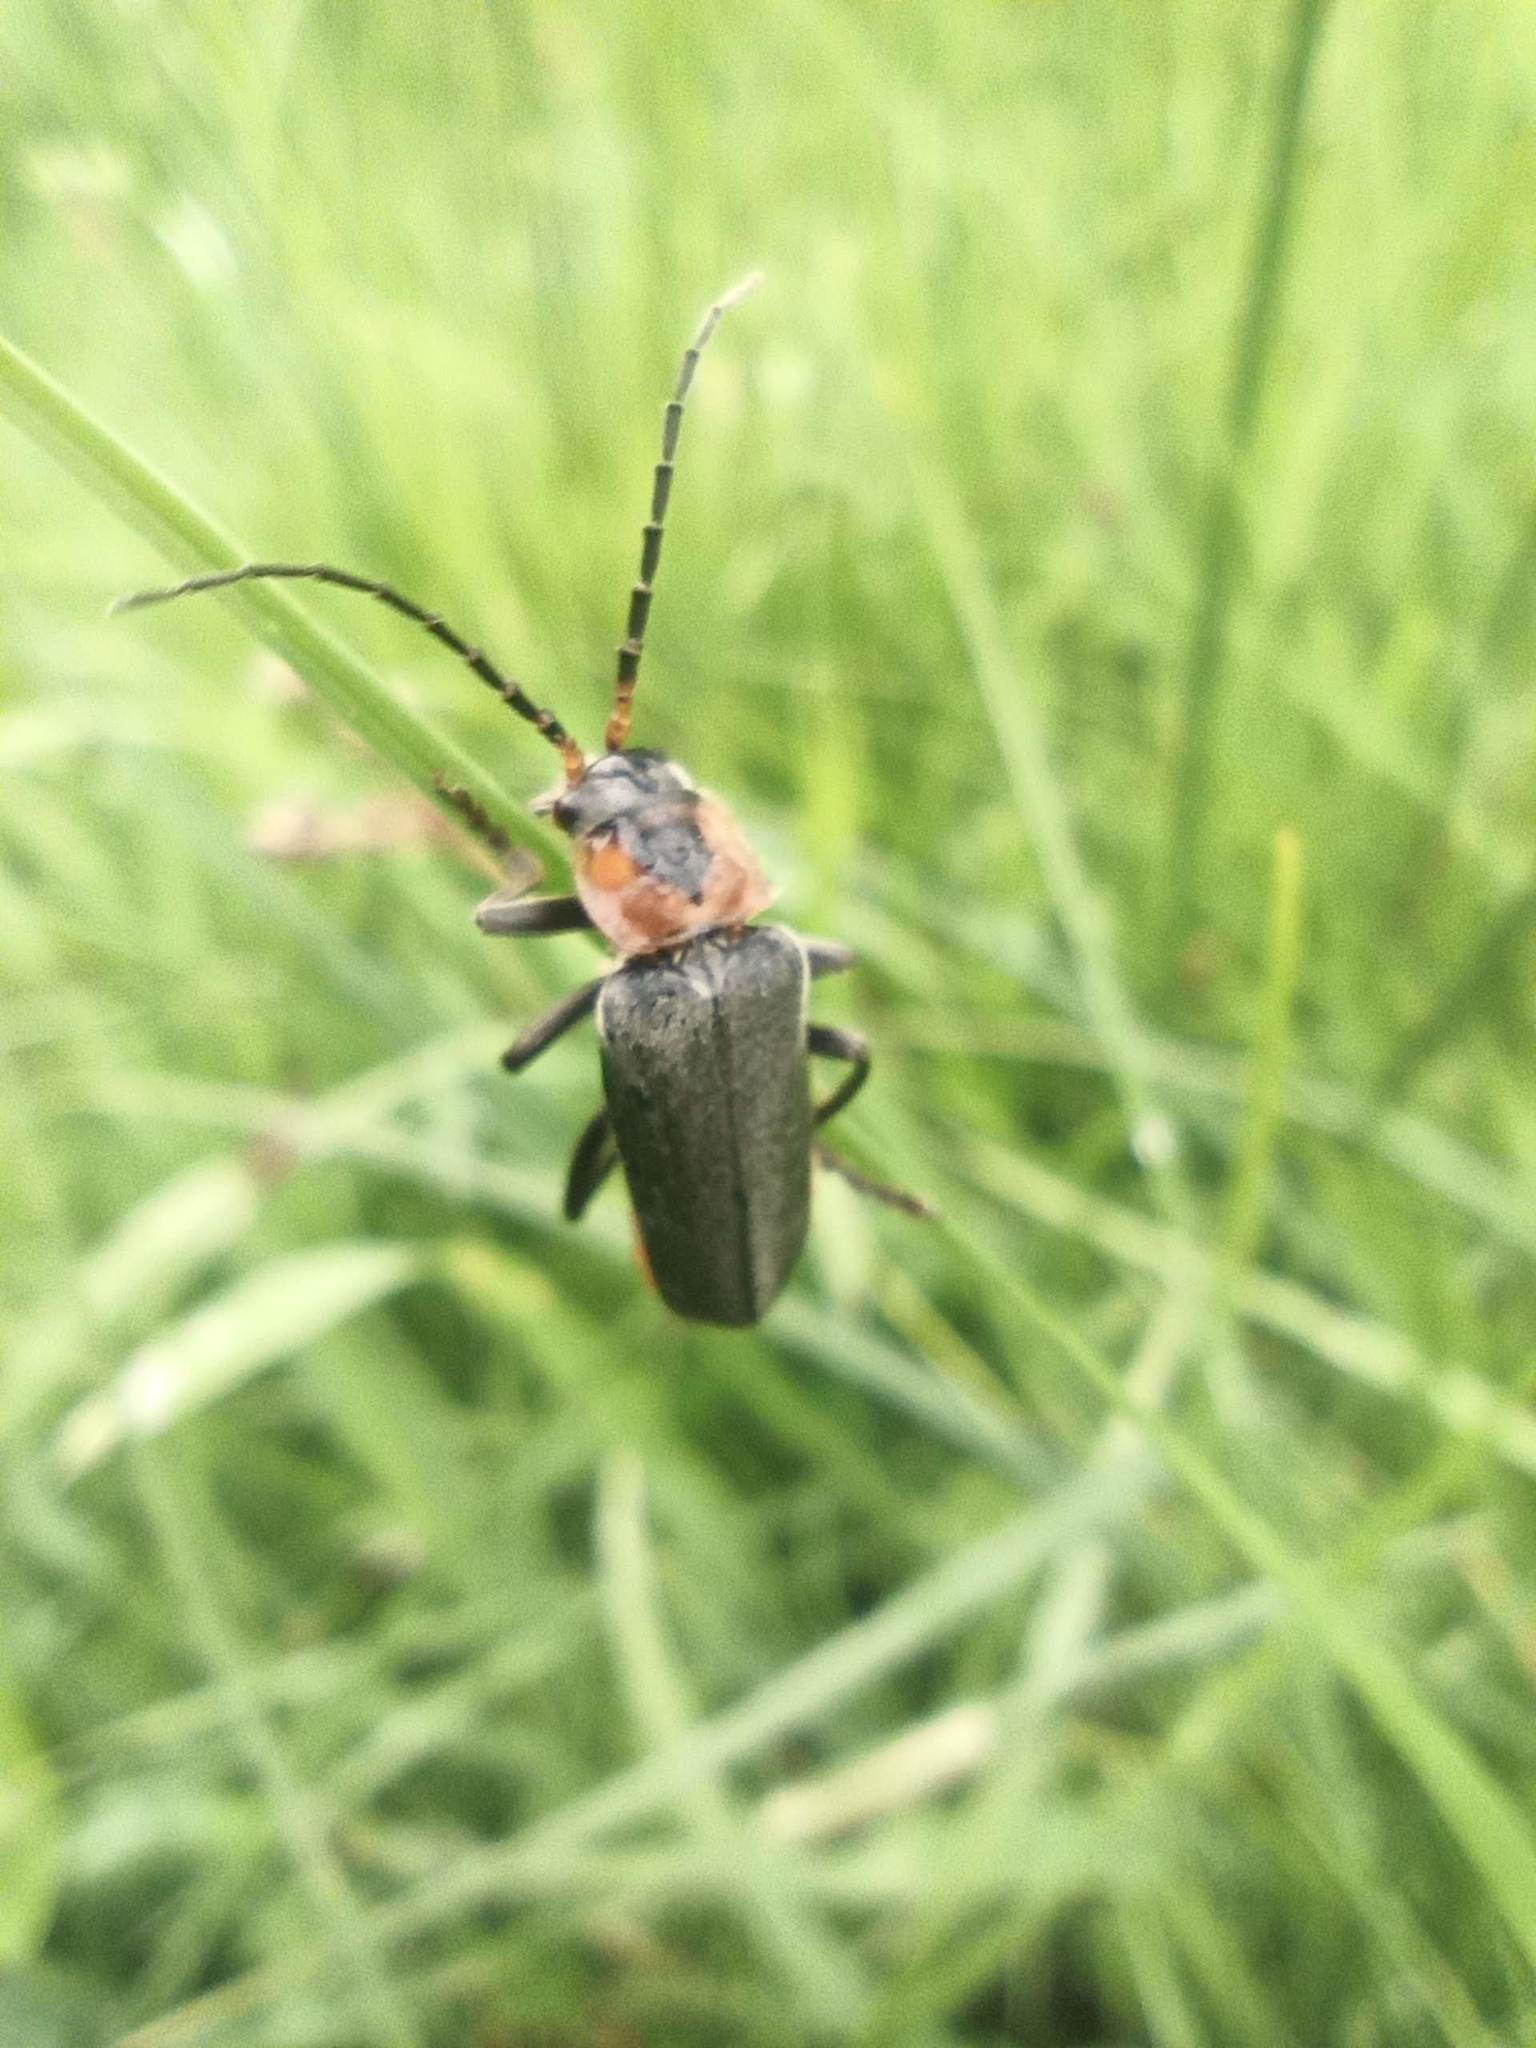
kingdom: Animalia
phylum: Arthropoda
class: Insecta
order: Coleoptera
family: Cantharidae
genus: Cantharis
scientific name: Cantharis reichei
